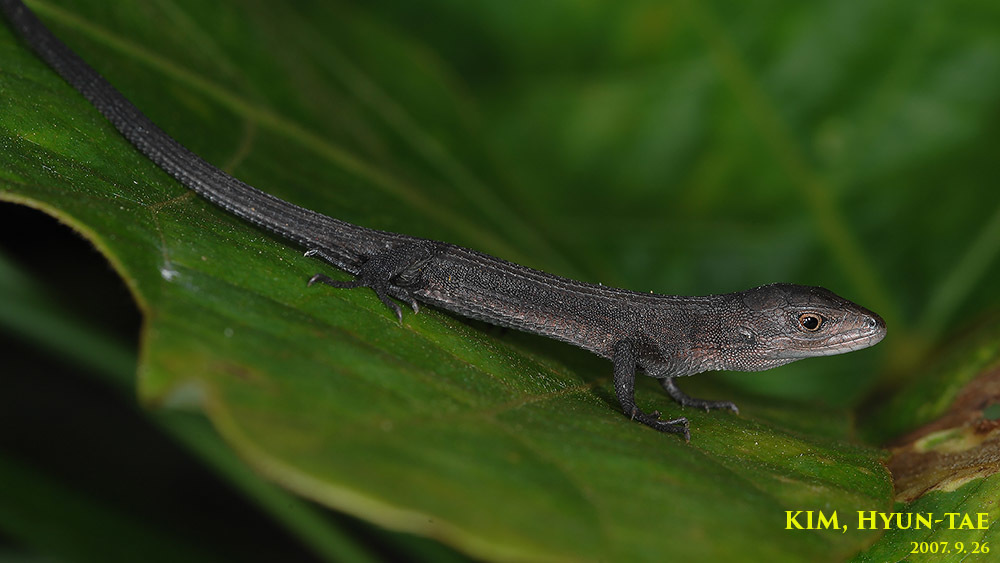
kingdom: Animalia
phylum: Chordata
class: Squamata
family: Lacertidae
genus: Takydromus
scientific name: Takydromus wolteri
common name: Mountain grass lizard
